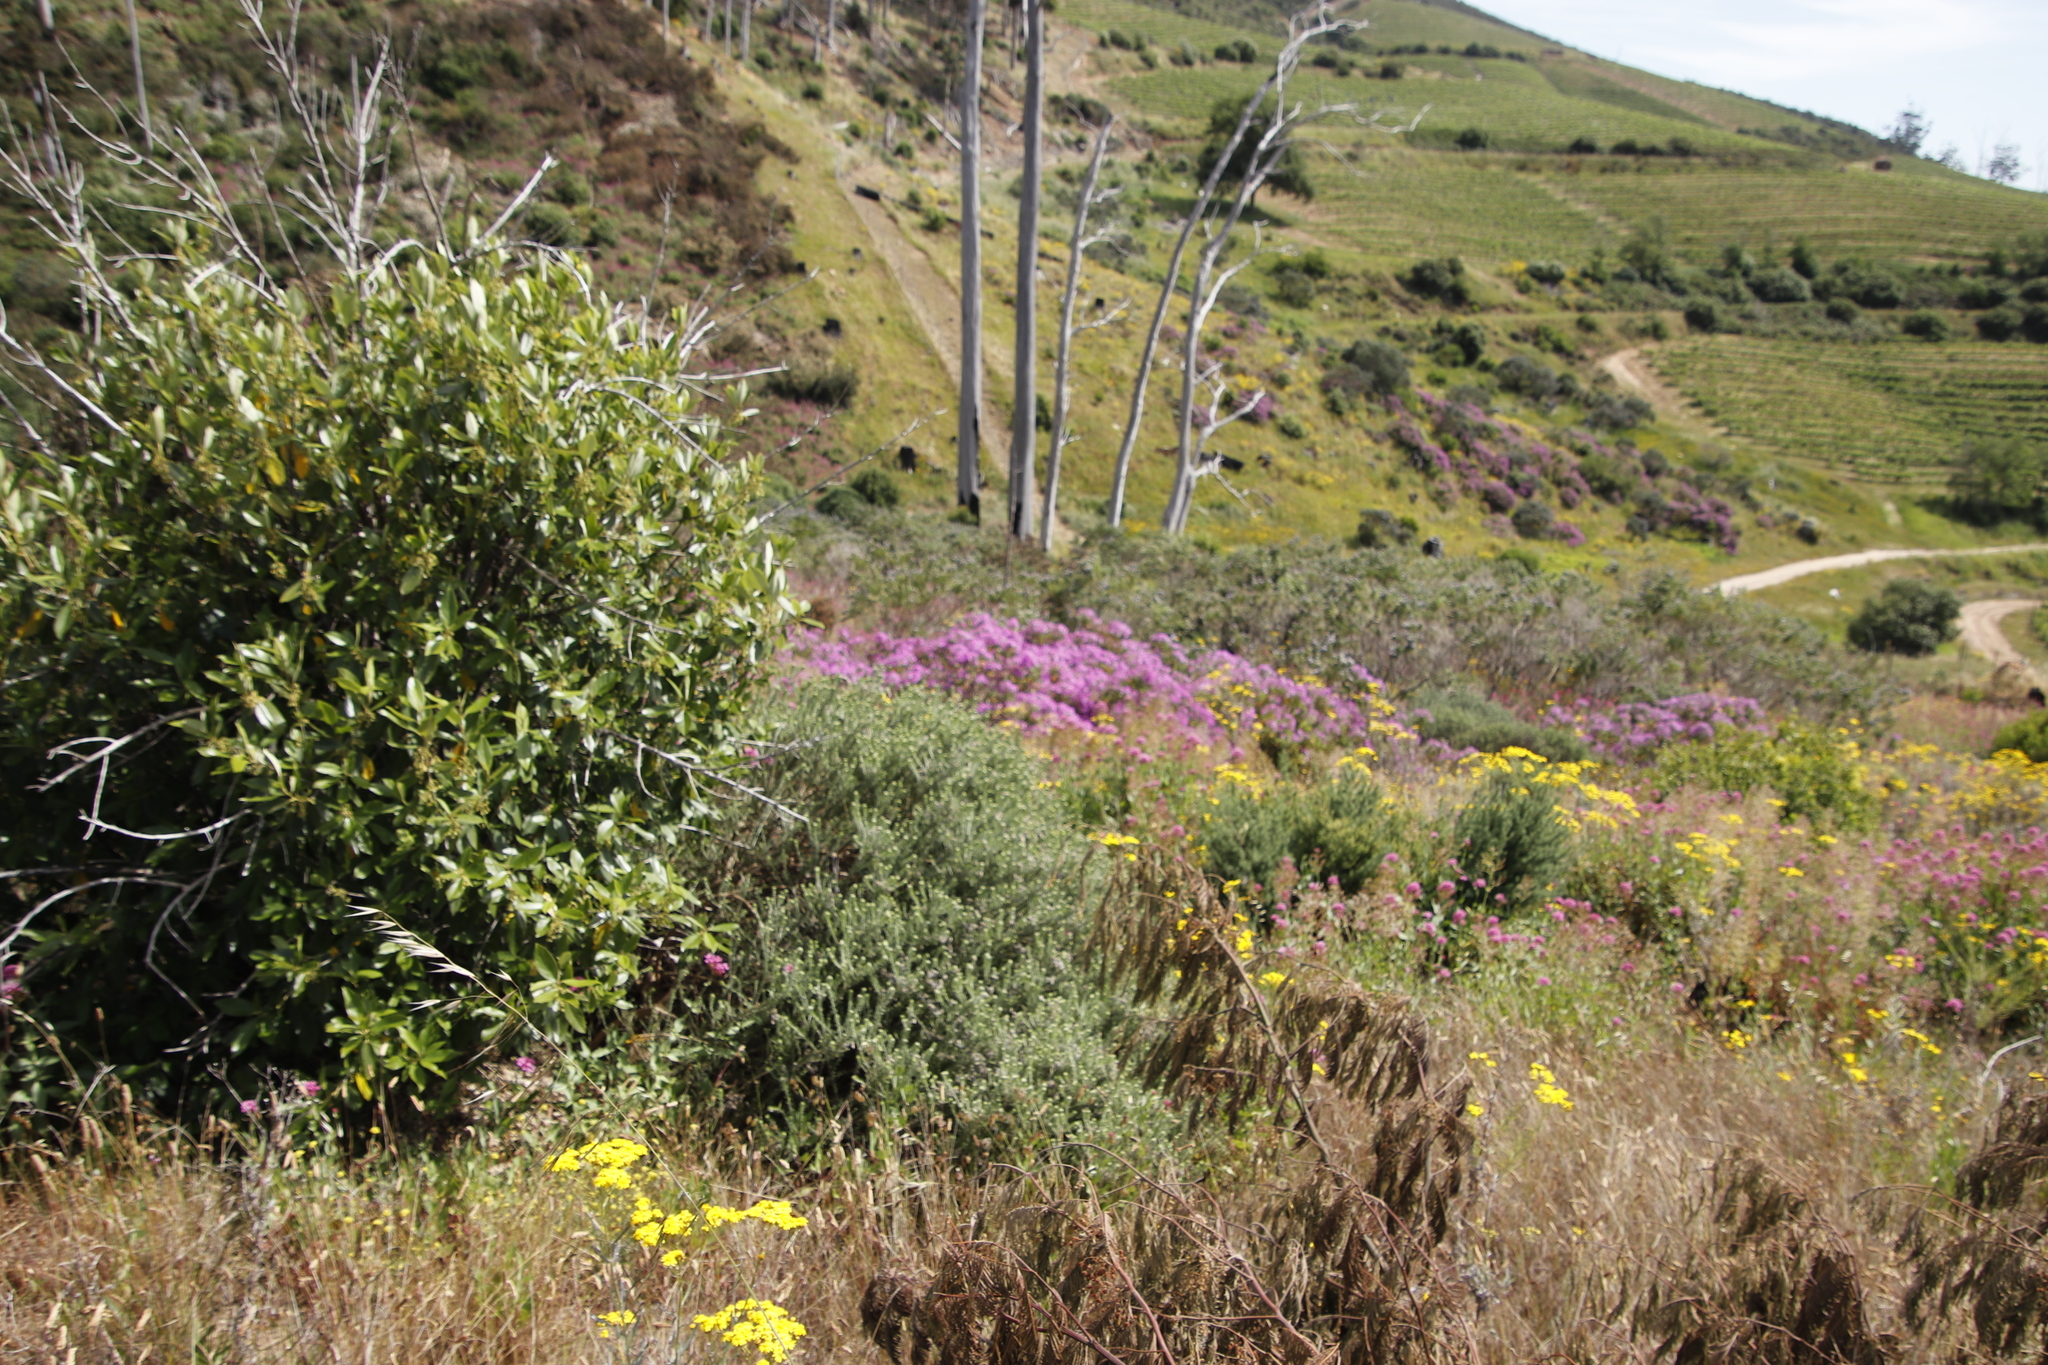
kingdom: Plantae
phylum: Tracheophyta
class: Magnoliopsida
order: Geraniales
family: Geraniaceae
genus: Pelargonium
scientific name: Pelargonium cucullatum
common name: Tree pelargonium
